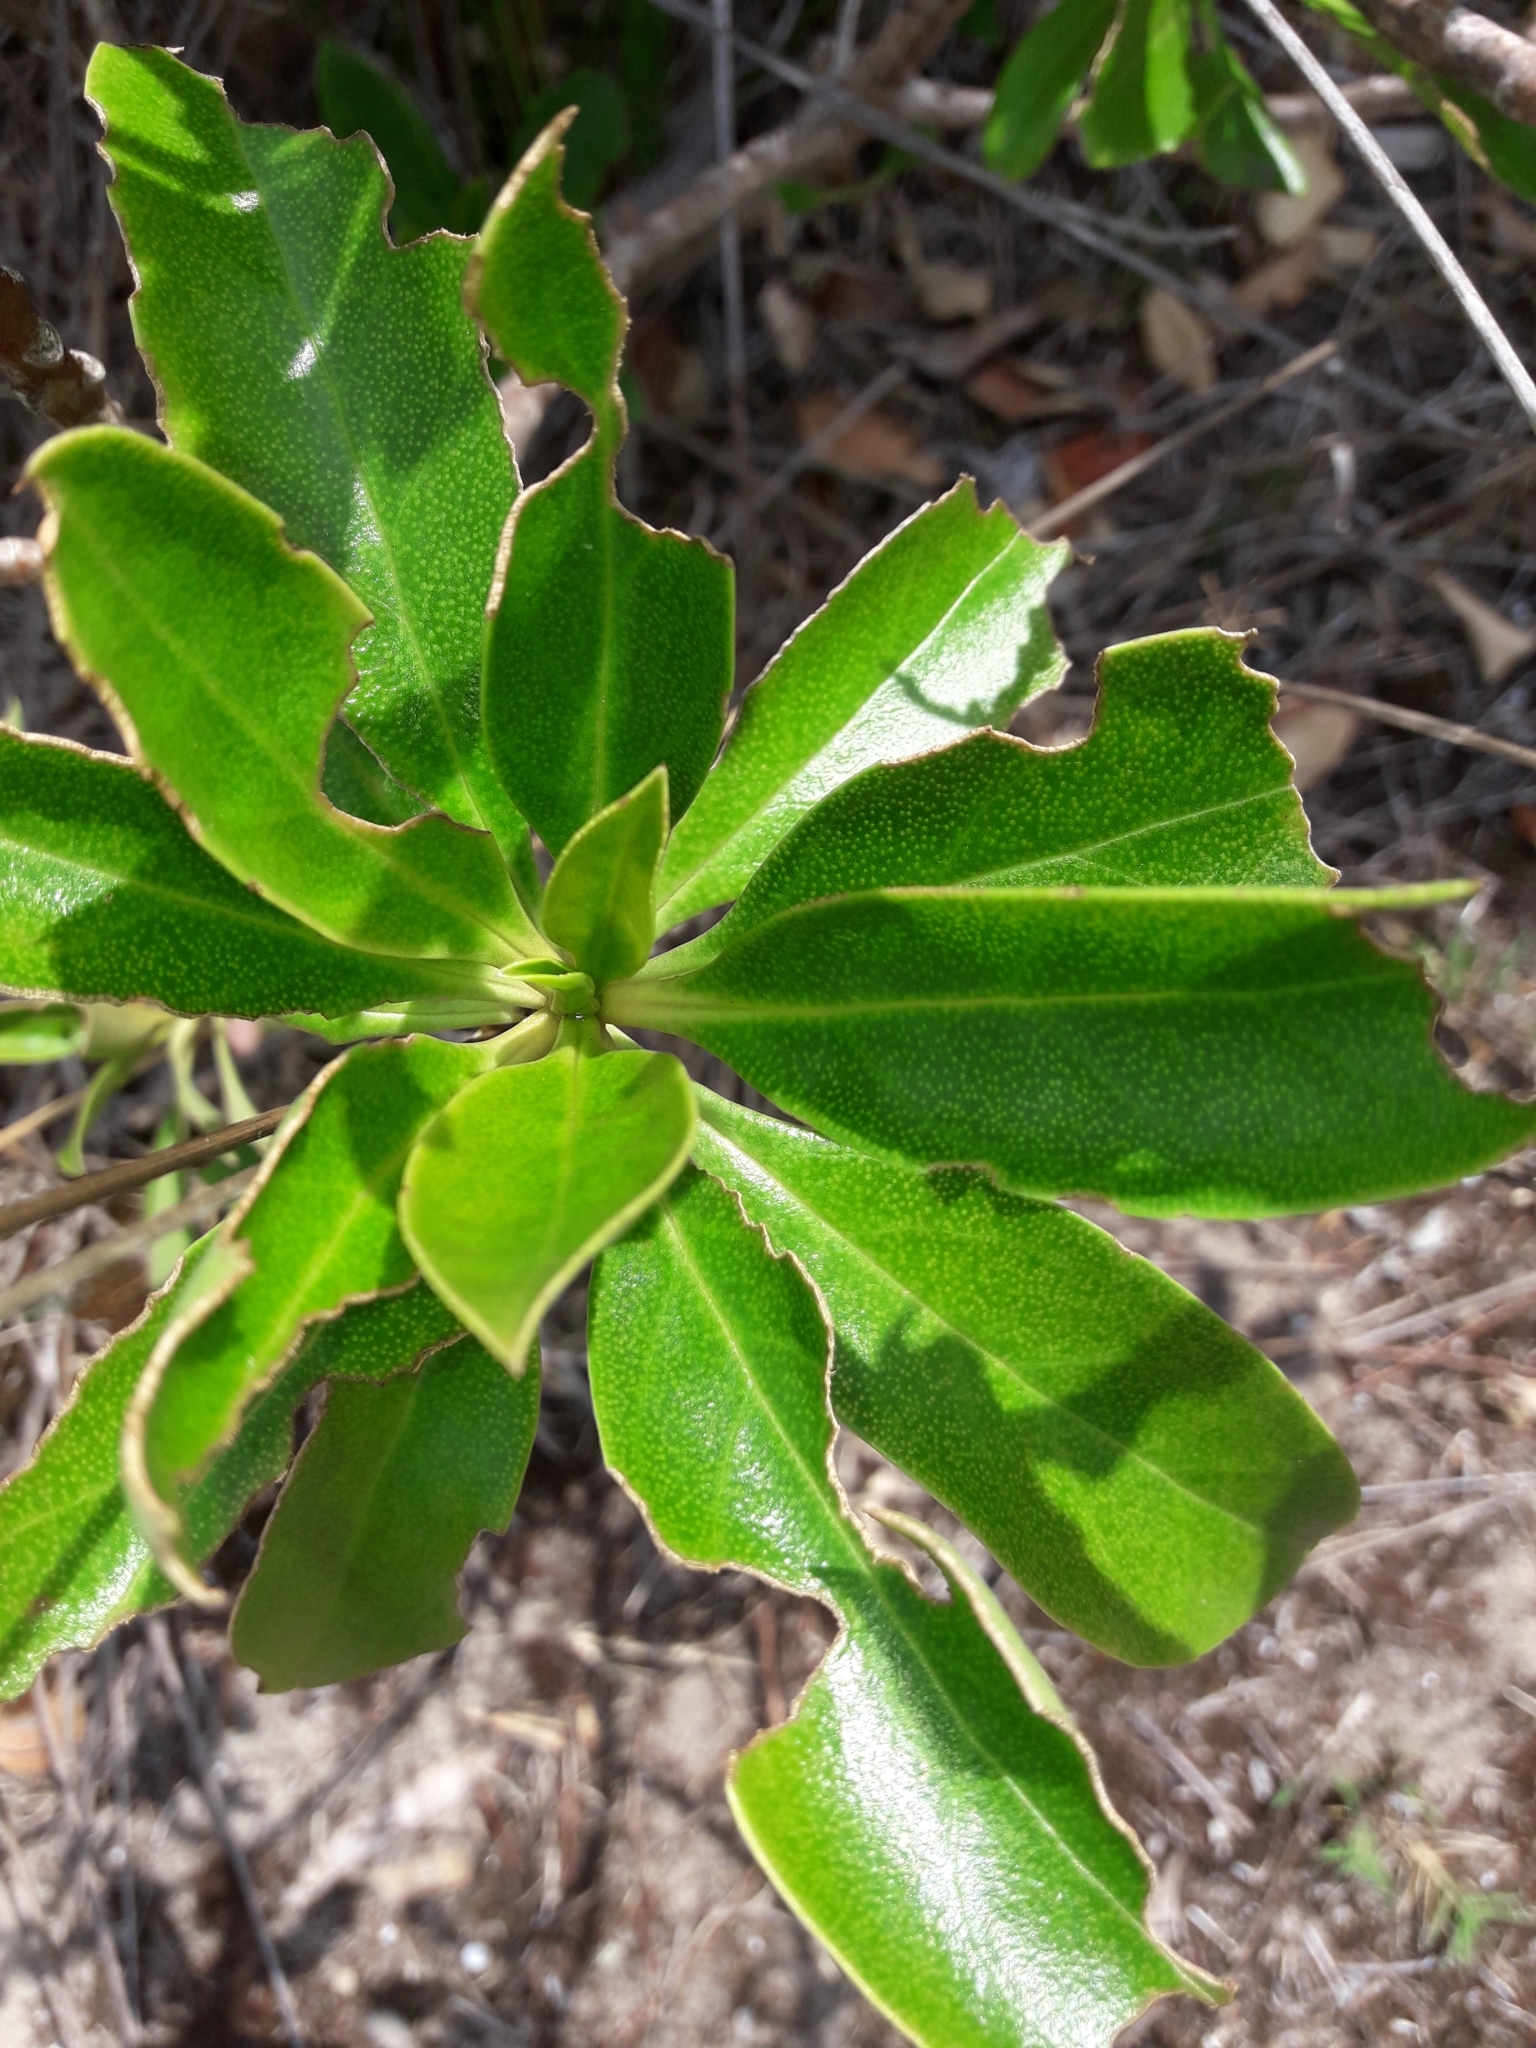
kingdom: Plantae
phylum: Tracheophyta
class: Magnoliopsida
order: Lamiales
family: Scrophulariaceae
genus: Myoporum
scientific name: Myoporum laetum
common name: Ngaio tree
